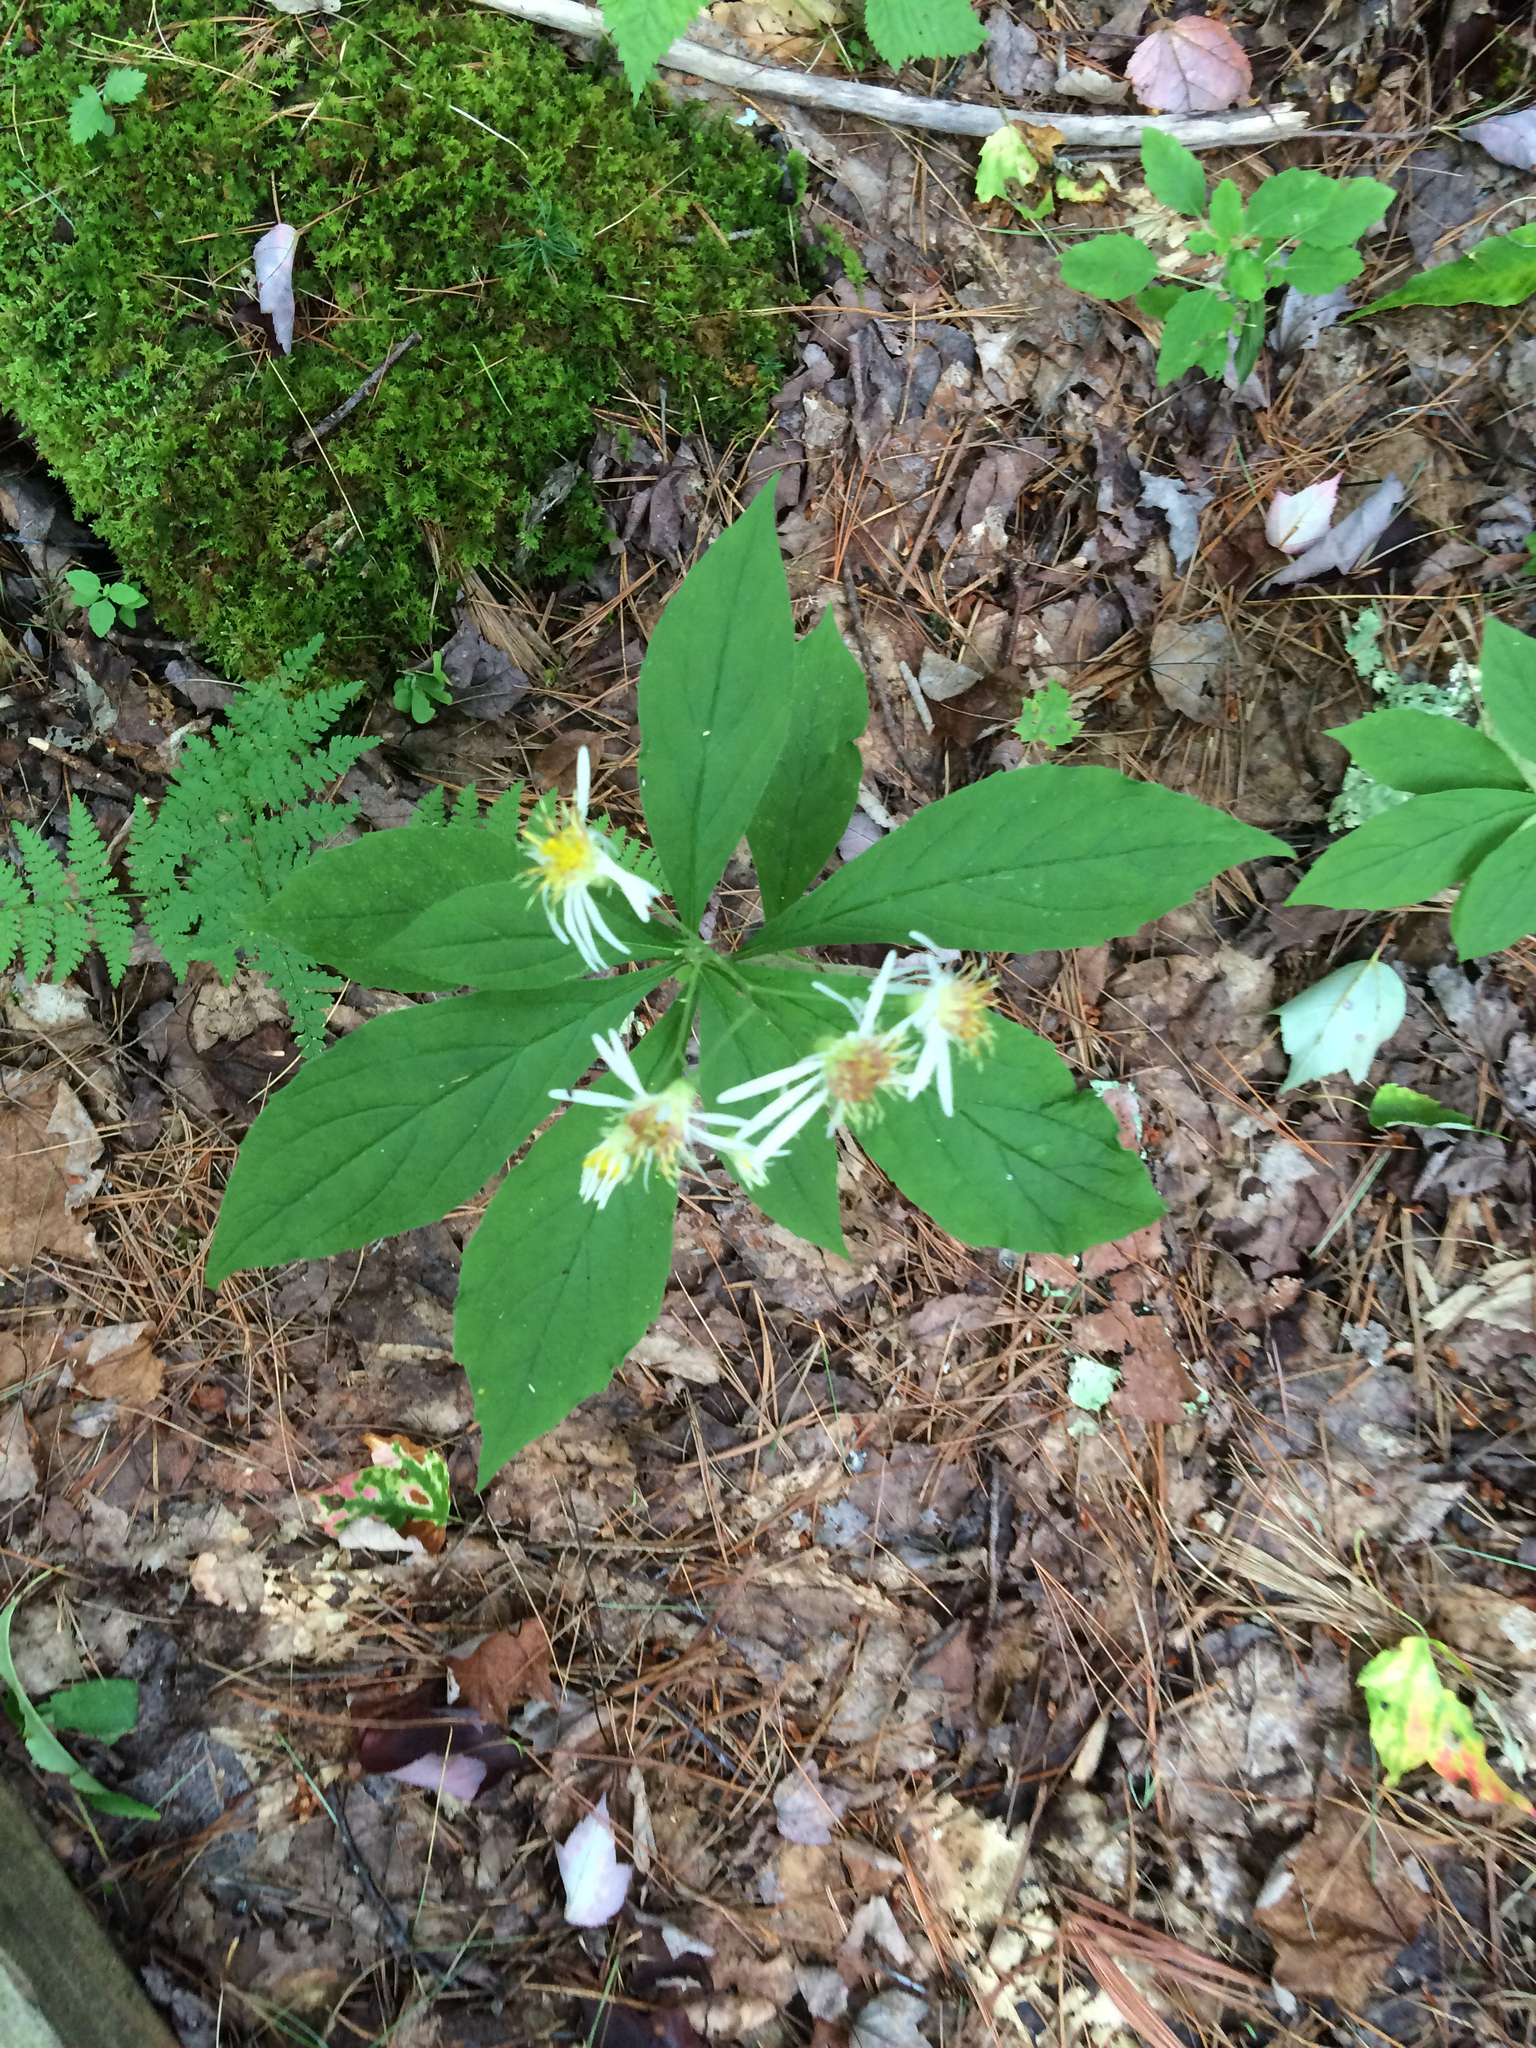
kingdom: Plantae
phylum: Tracheophyta
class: Magnoliopsida
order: Asterales
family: Asteraceae
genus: Oclemena
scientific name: Oclemena acuminata
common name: Mountain aster
